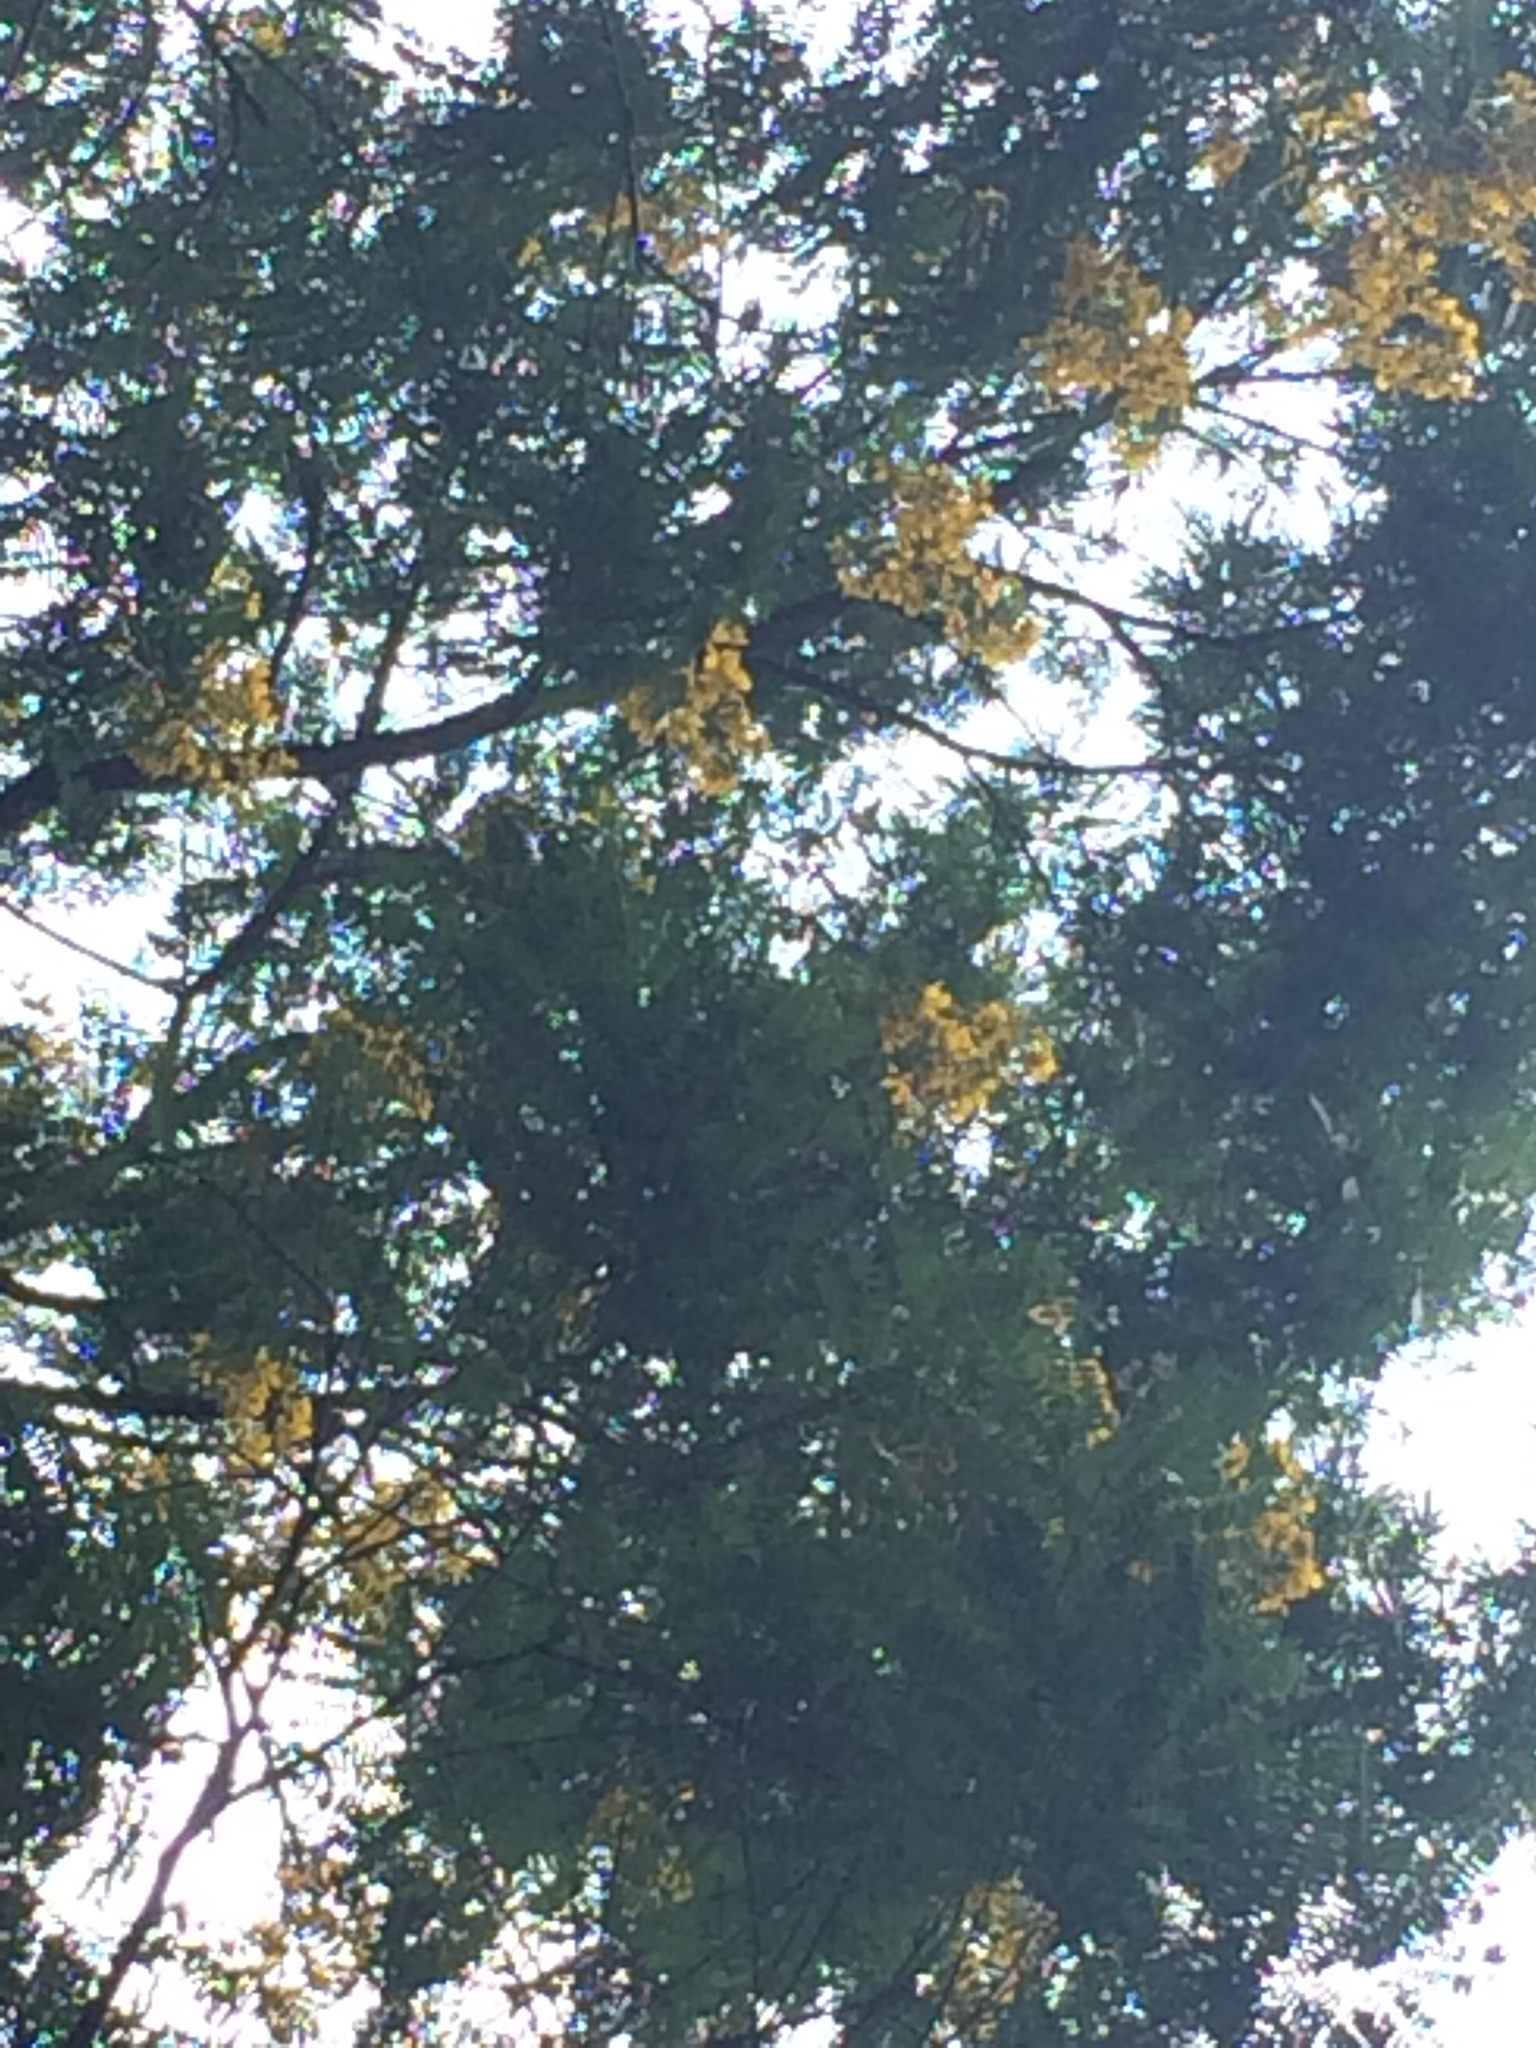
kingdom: Plantae
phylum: Tracheophyta
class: Magnoliopsida
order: Fabales
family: Fabaceae
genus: Senna
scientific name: Senna multijuga
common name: False sicklepod
